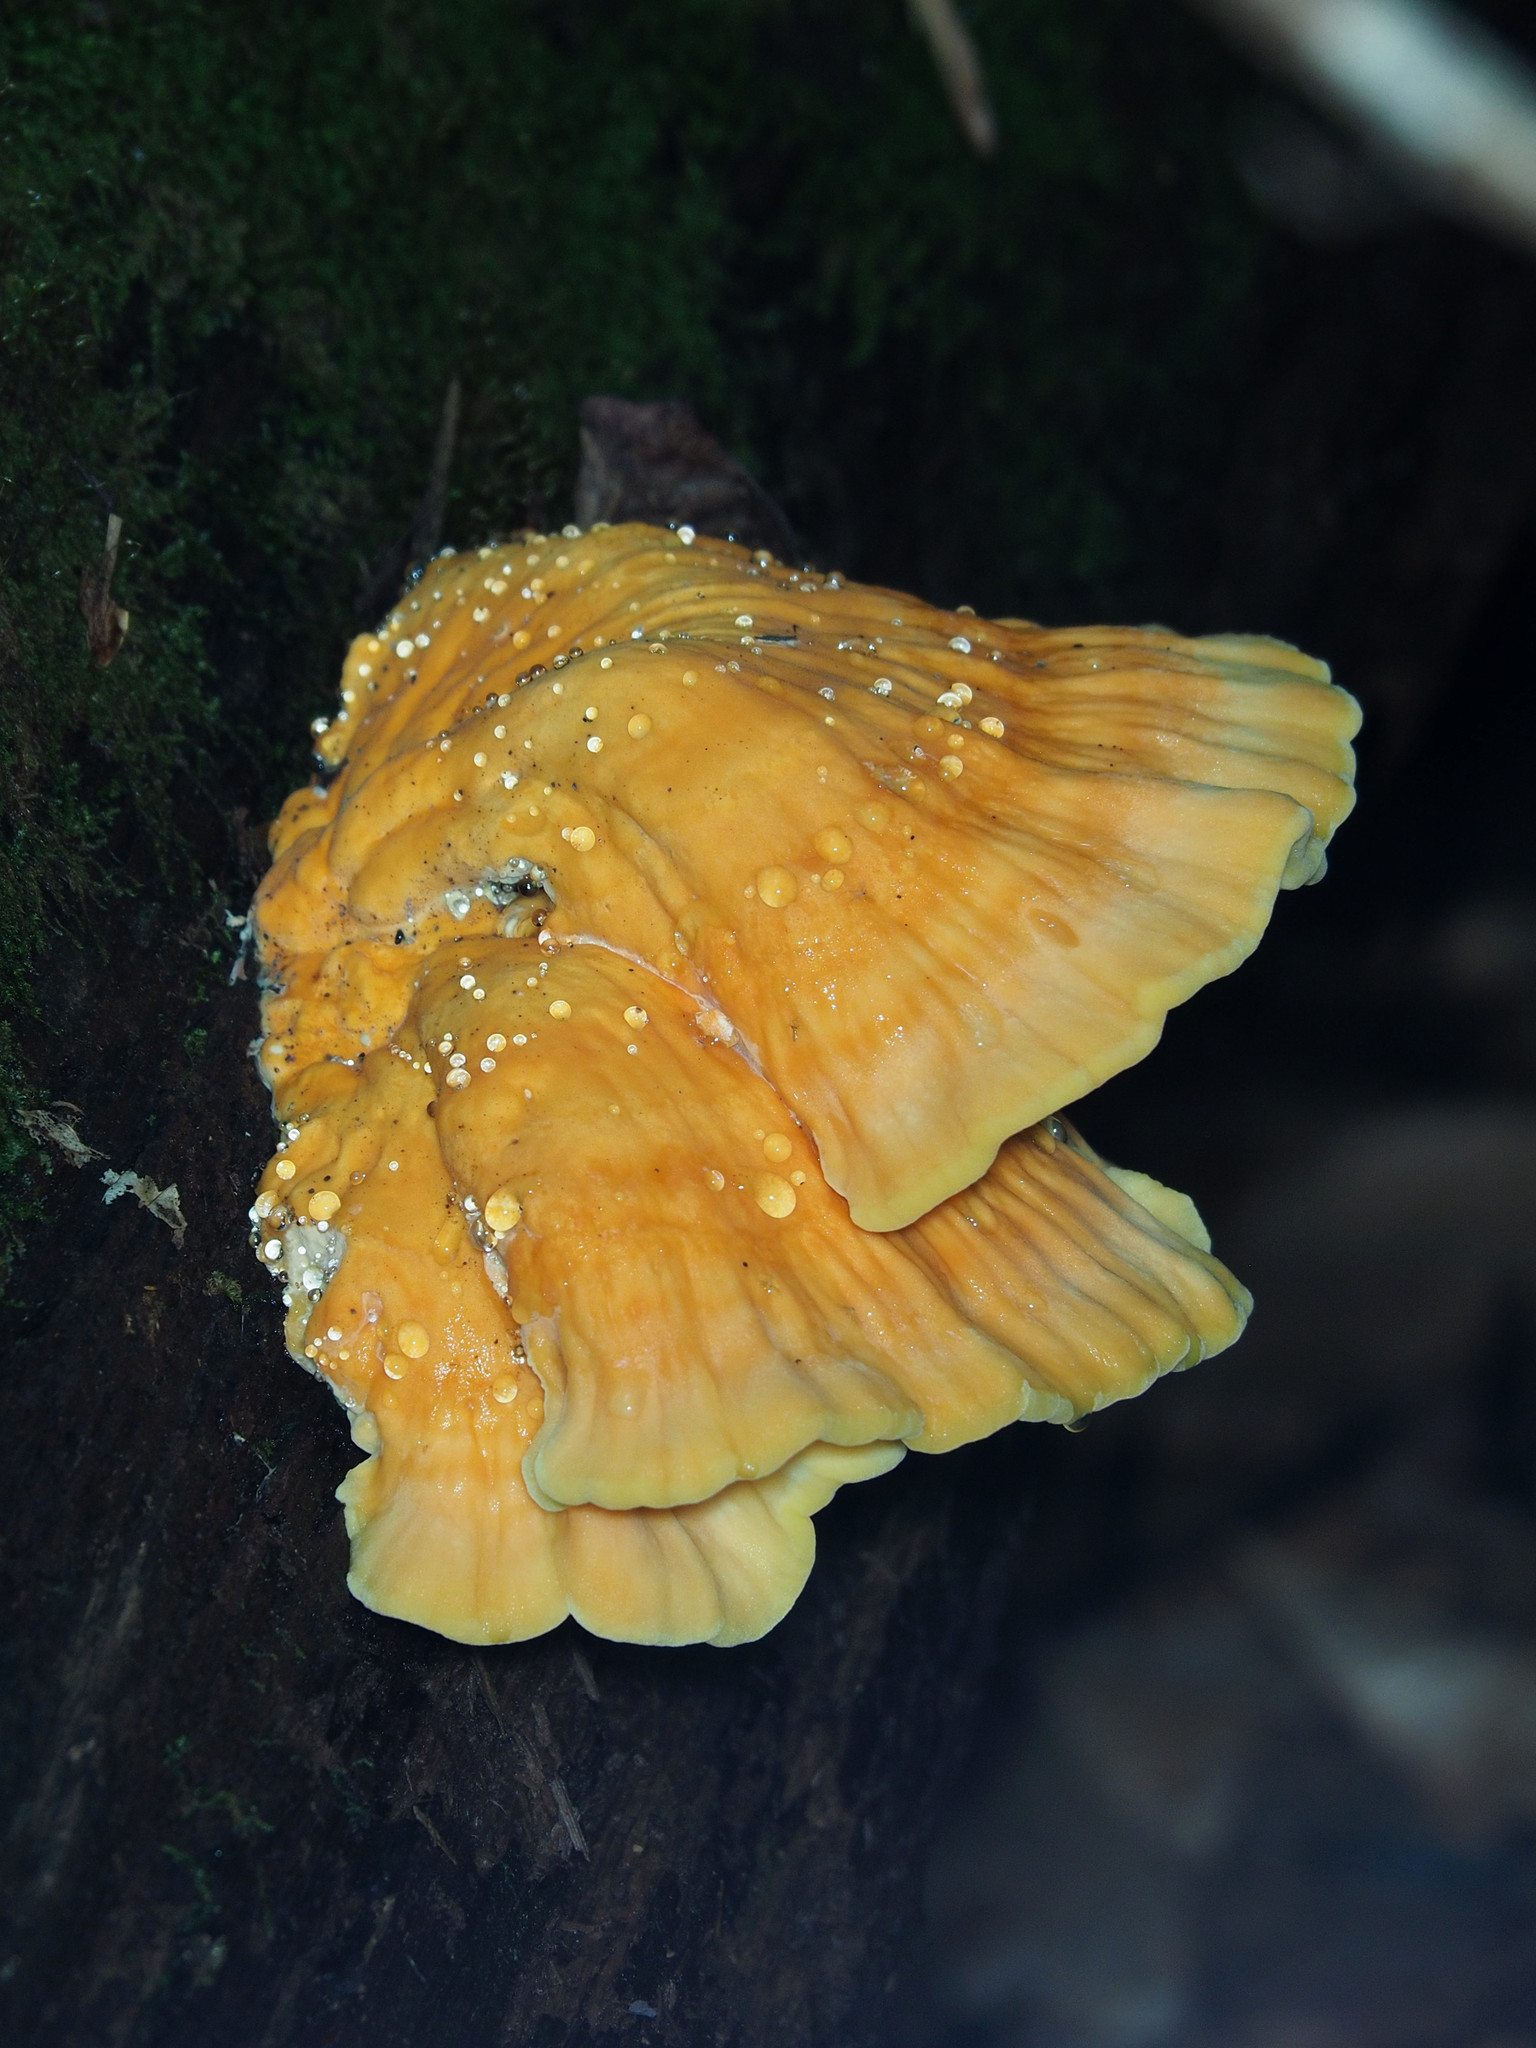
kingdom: Fungi
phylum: Basidiomycota
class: Agaricomycetes
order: Polyporales
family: Laetiporaceae
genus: Laetiporus
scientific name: Laetiporus sulphureus
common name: Chicken of the woods
